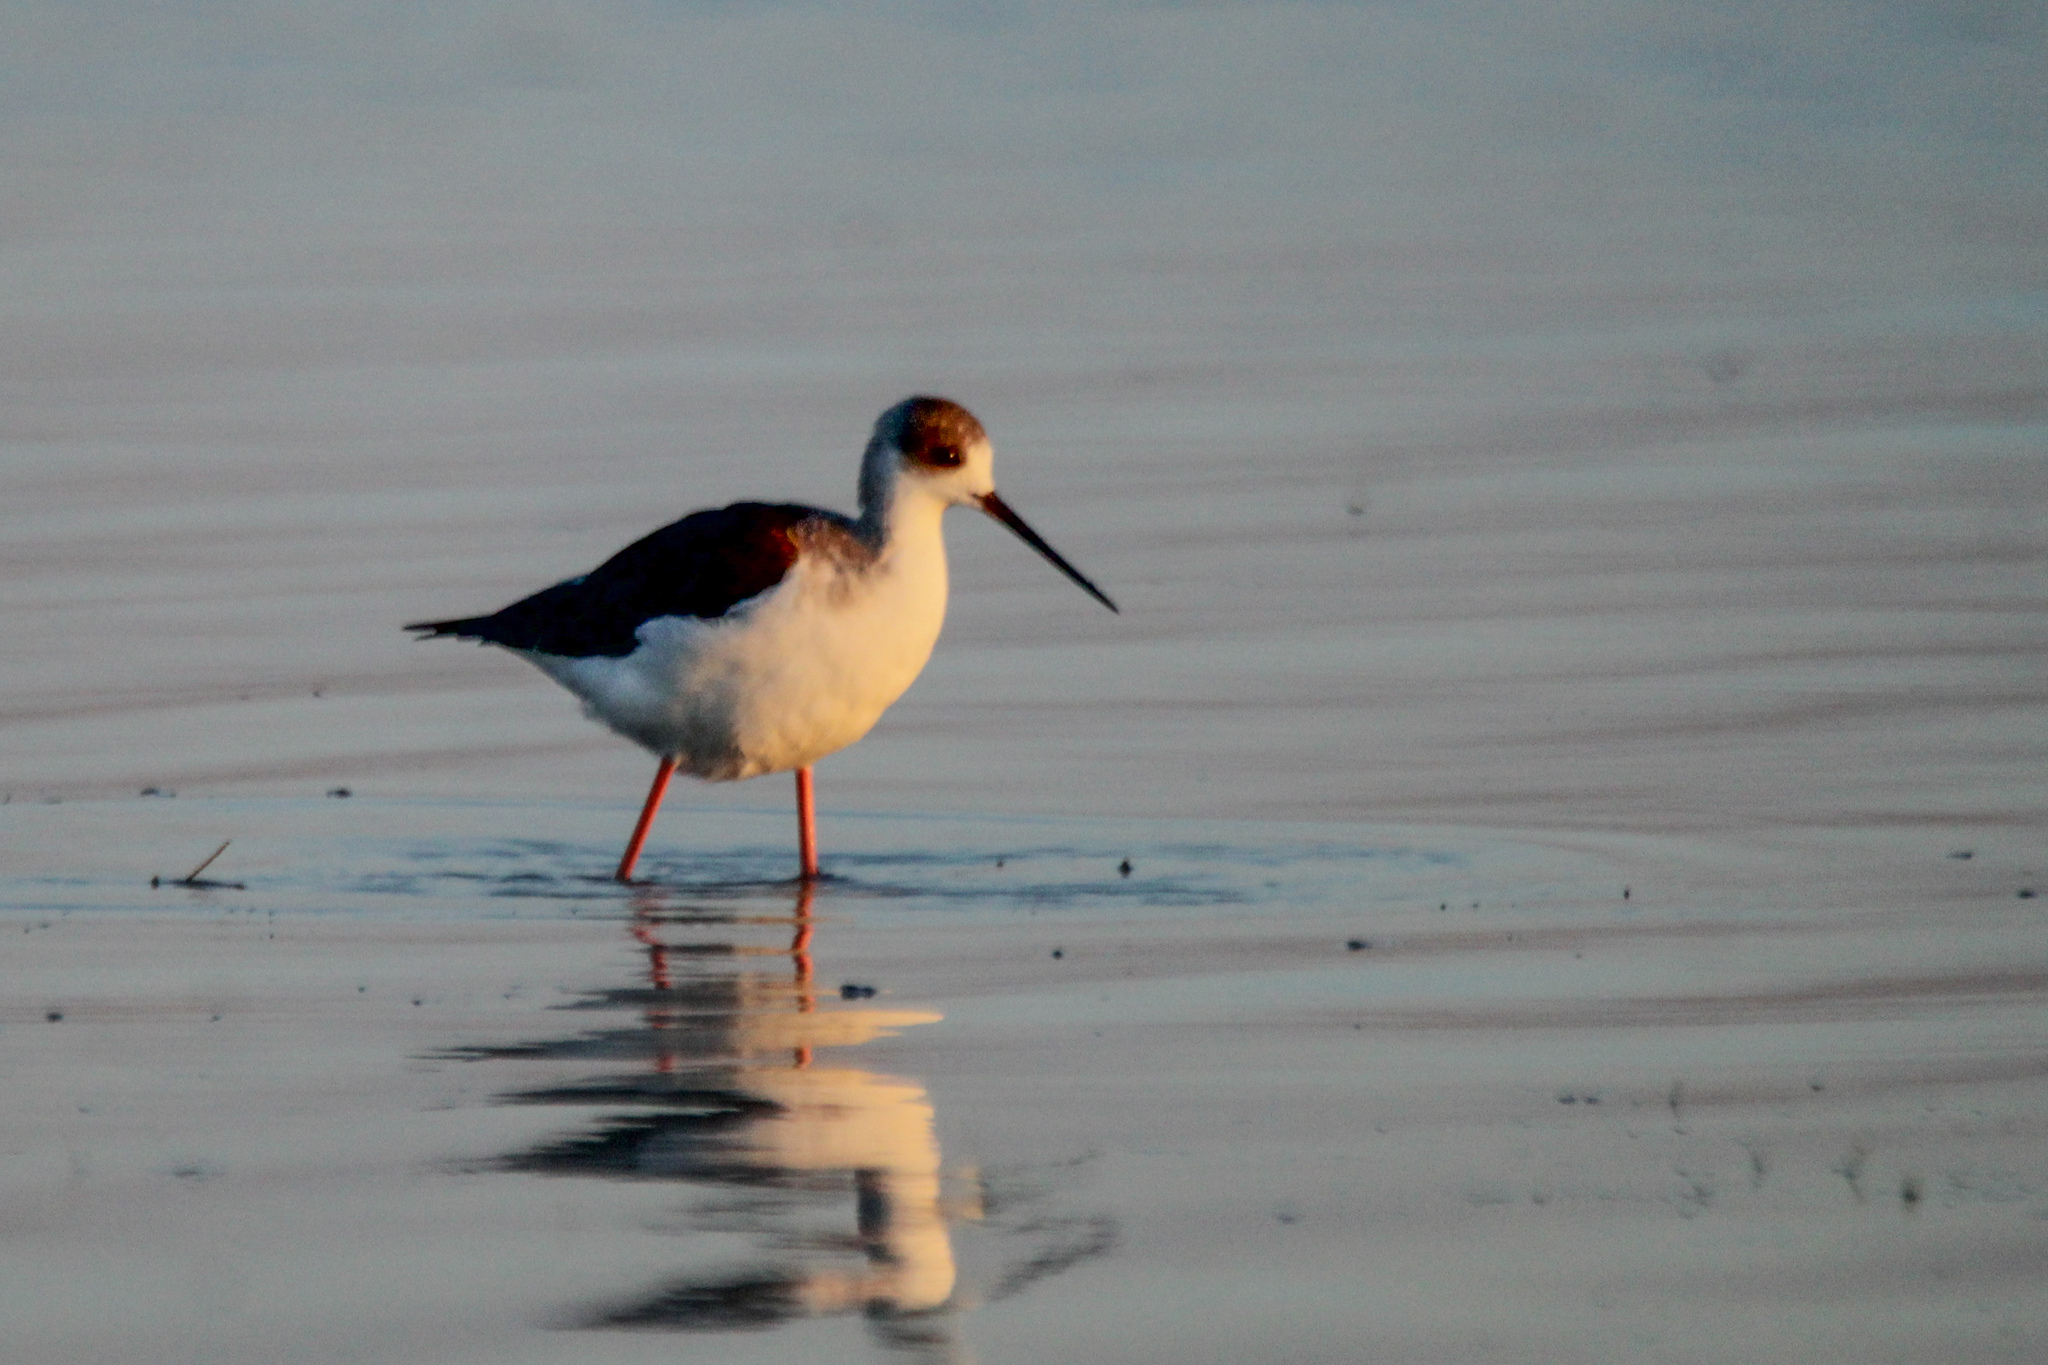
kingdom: Animalia
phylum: Chordata
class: Aves
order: Charadriiformes
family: Recurvirostridae
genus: Himantopus
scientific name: Himantopus himantopus
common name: Black-winged stilt
